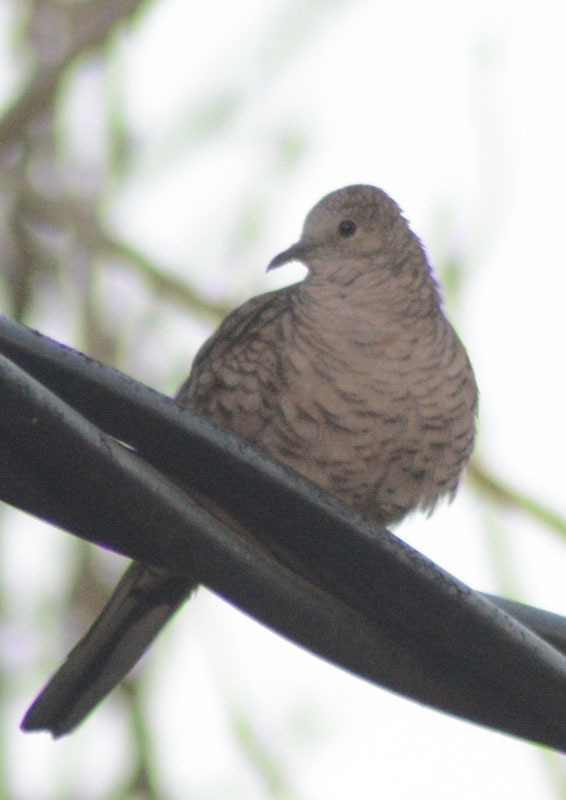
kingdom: Animalia
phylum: Chordata
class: Aves
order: Columbiformes
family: Columbidae
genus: Columbina
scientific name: Columbina inca
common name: Inca dove
